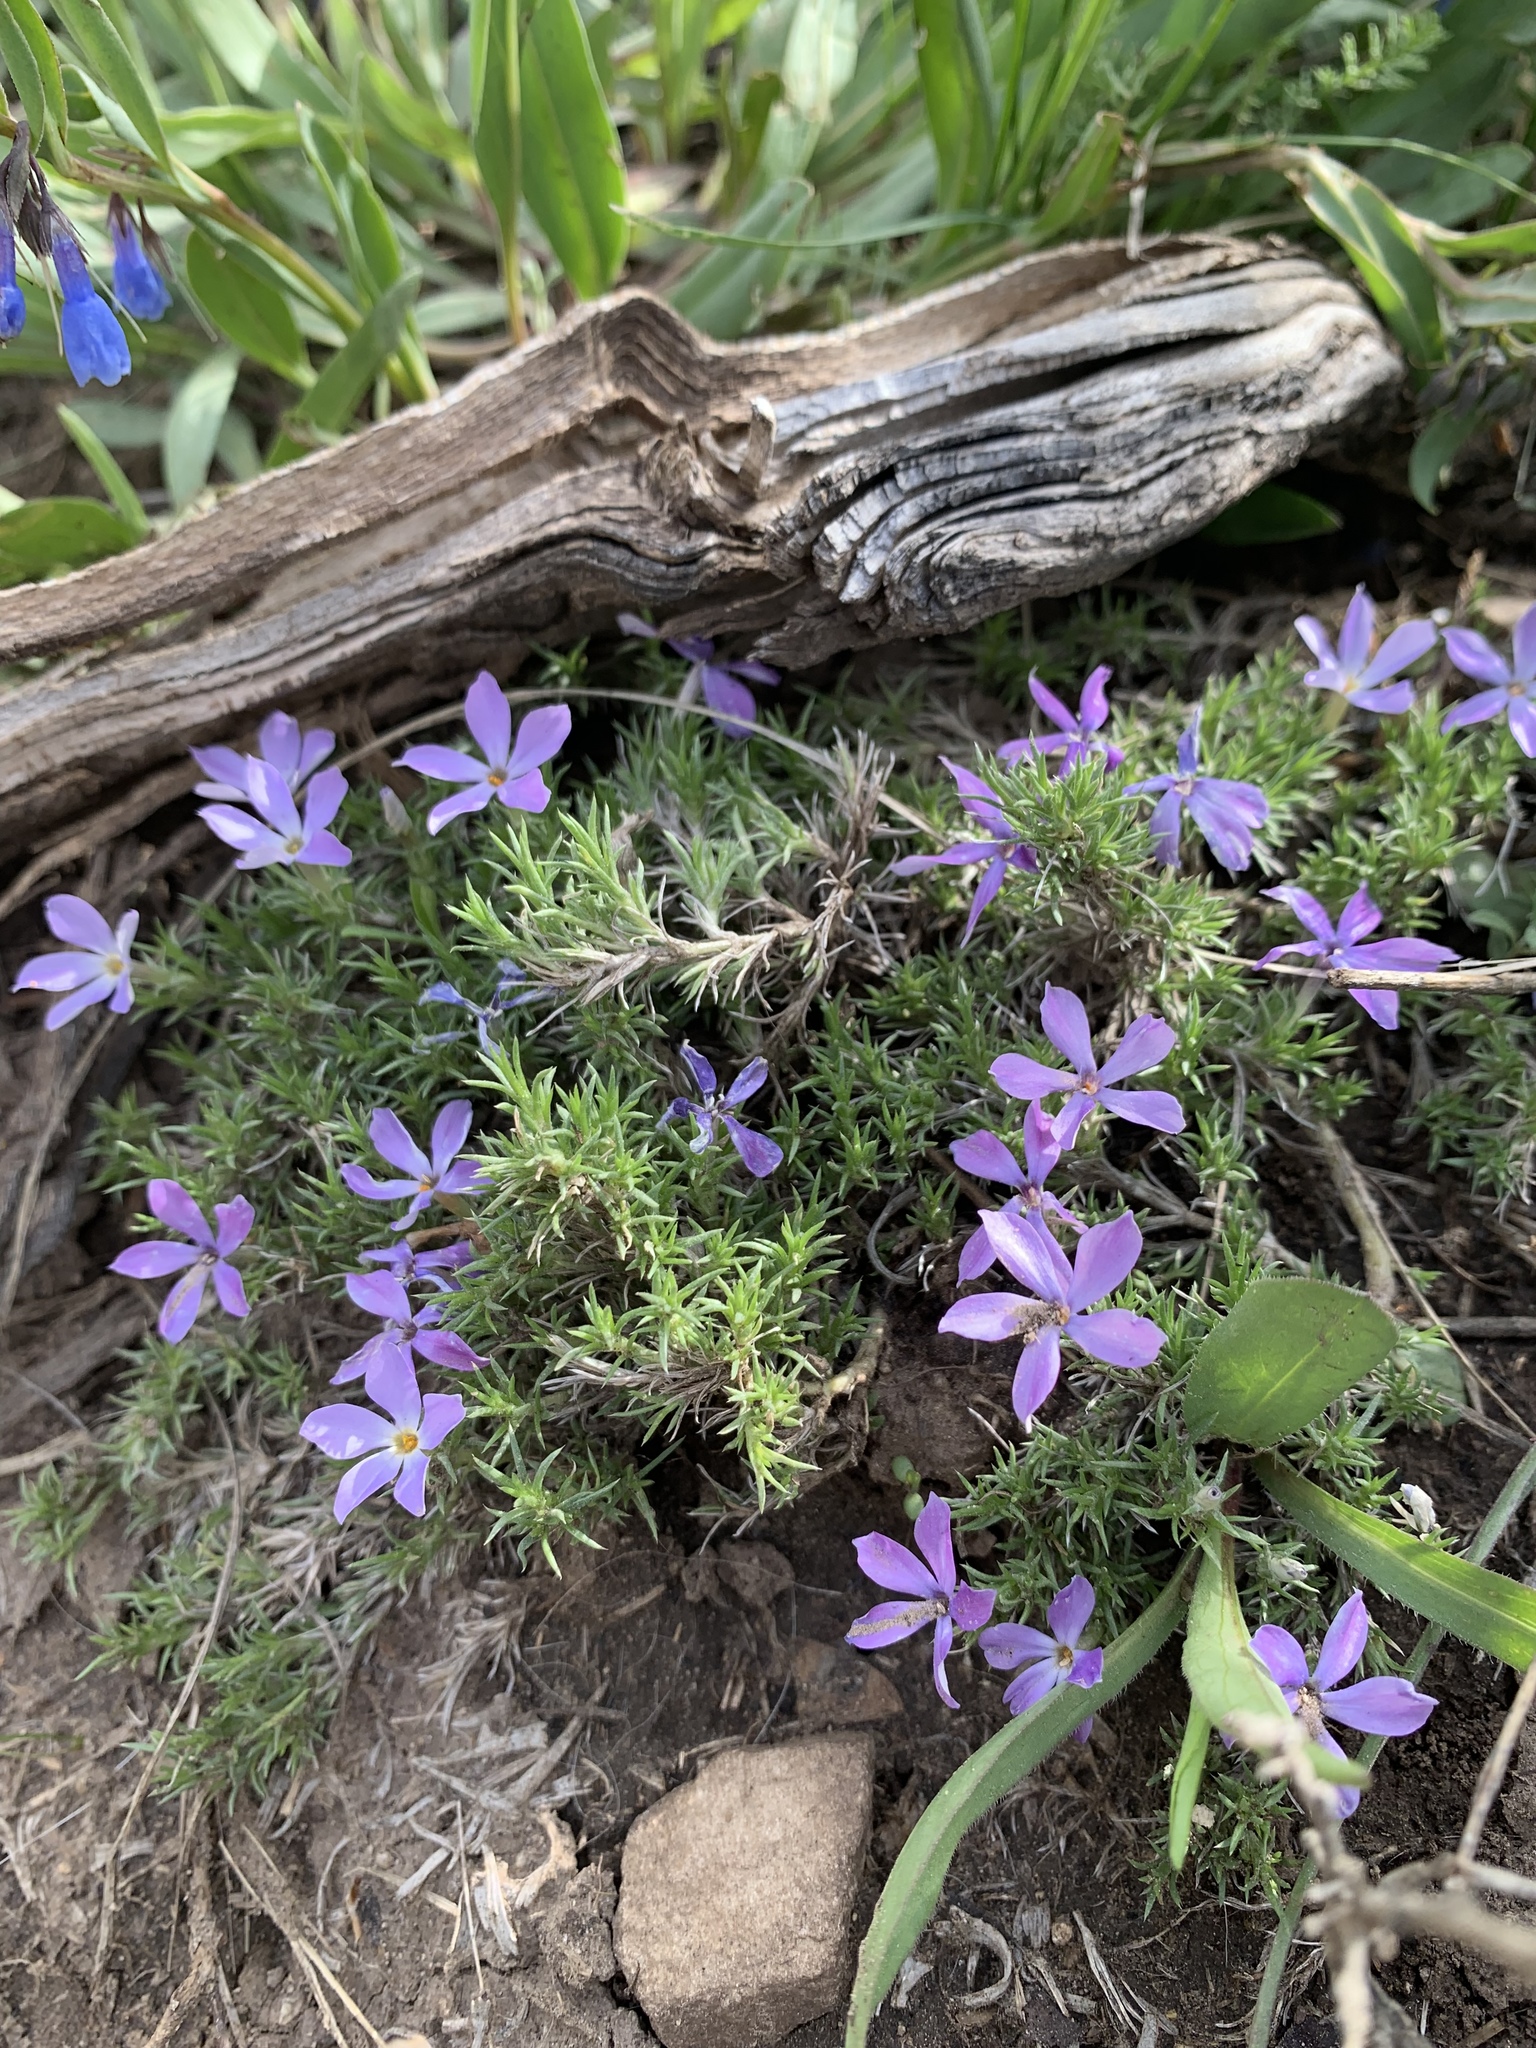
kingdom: Plantae
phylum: Tracheophyta
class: Magnoliopsida
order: Ericales
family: Polemoniaceae
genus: Phlox
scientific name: Phlox hoodii
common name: Moss phlox
